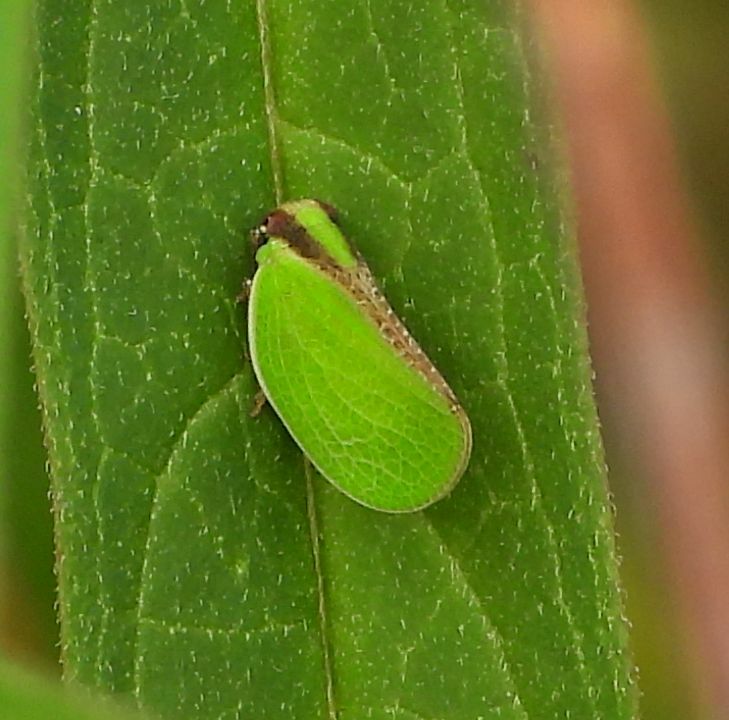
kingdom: Animalia
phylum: Arthropoda
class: Insecta
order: Hemiptera
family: Acanaloniidae
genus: Acanalonia
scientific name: Acanalonia bivittata
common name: Two-striped planthopper
